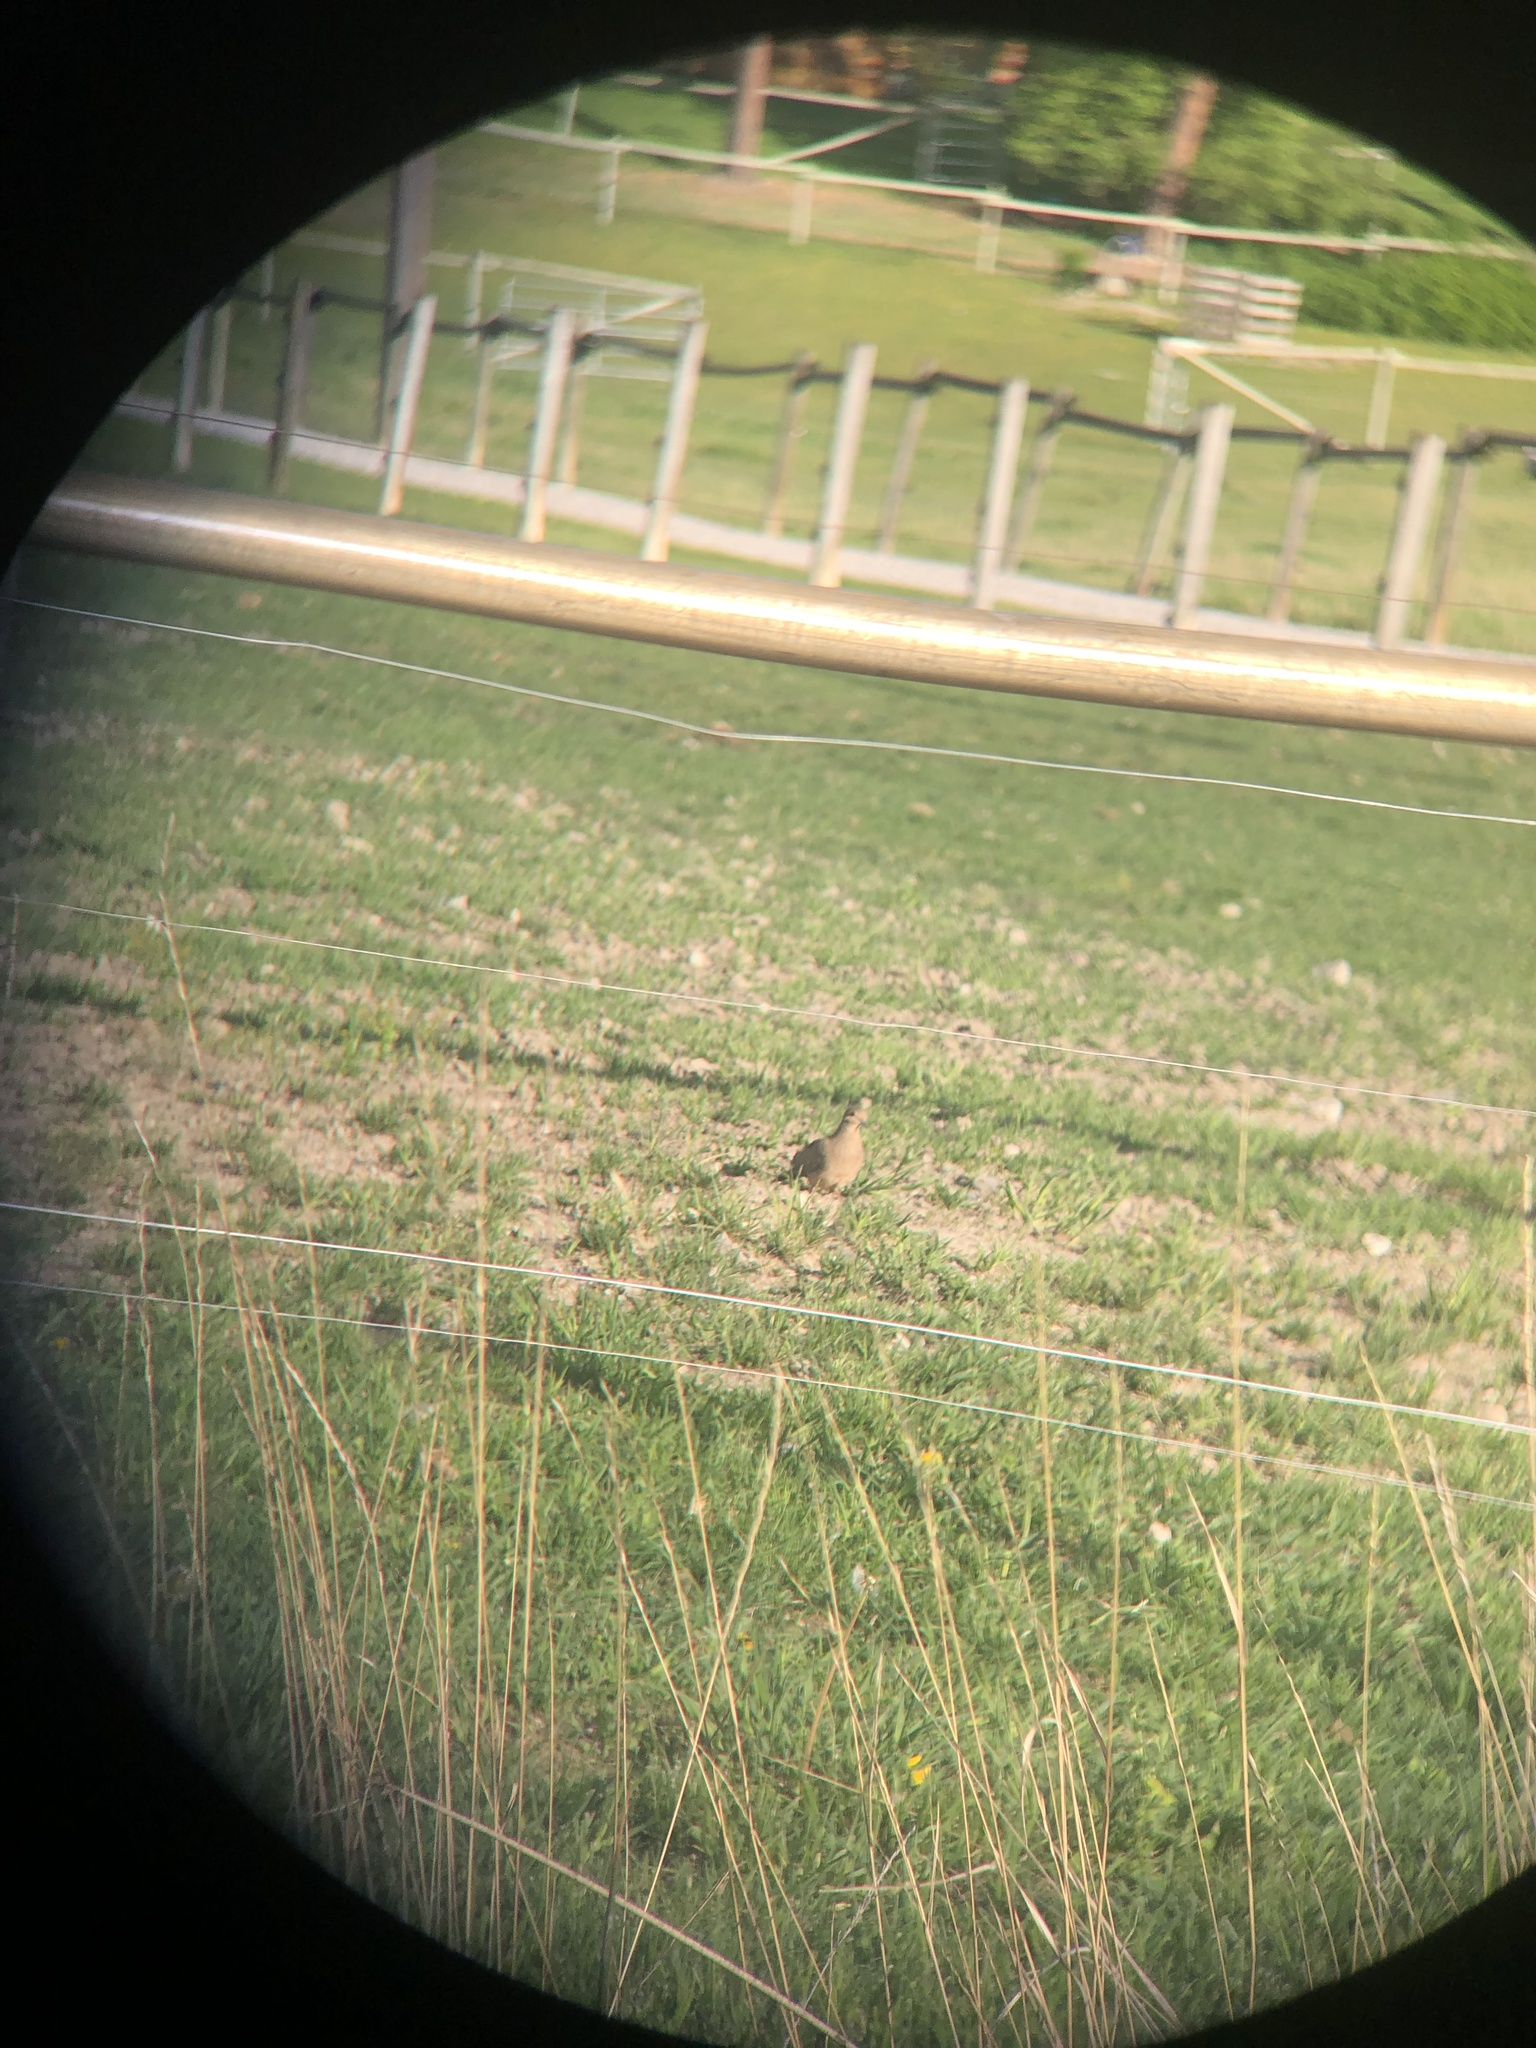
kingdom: Animalia
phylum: Chordata
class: Aves
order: Columbiformes
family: Columbidae
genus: Zenaida
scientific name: Zenaida macroura
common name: Mourning dove
